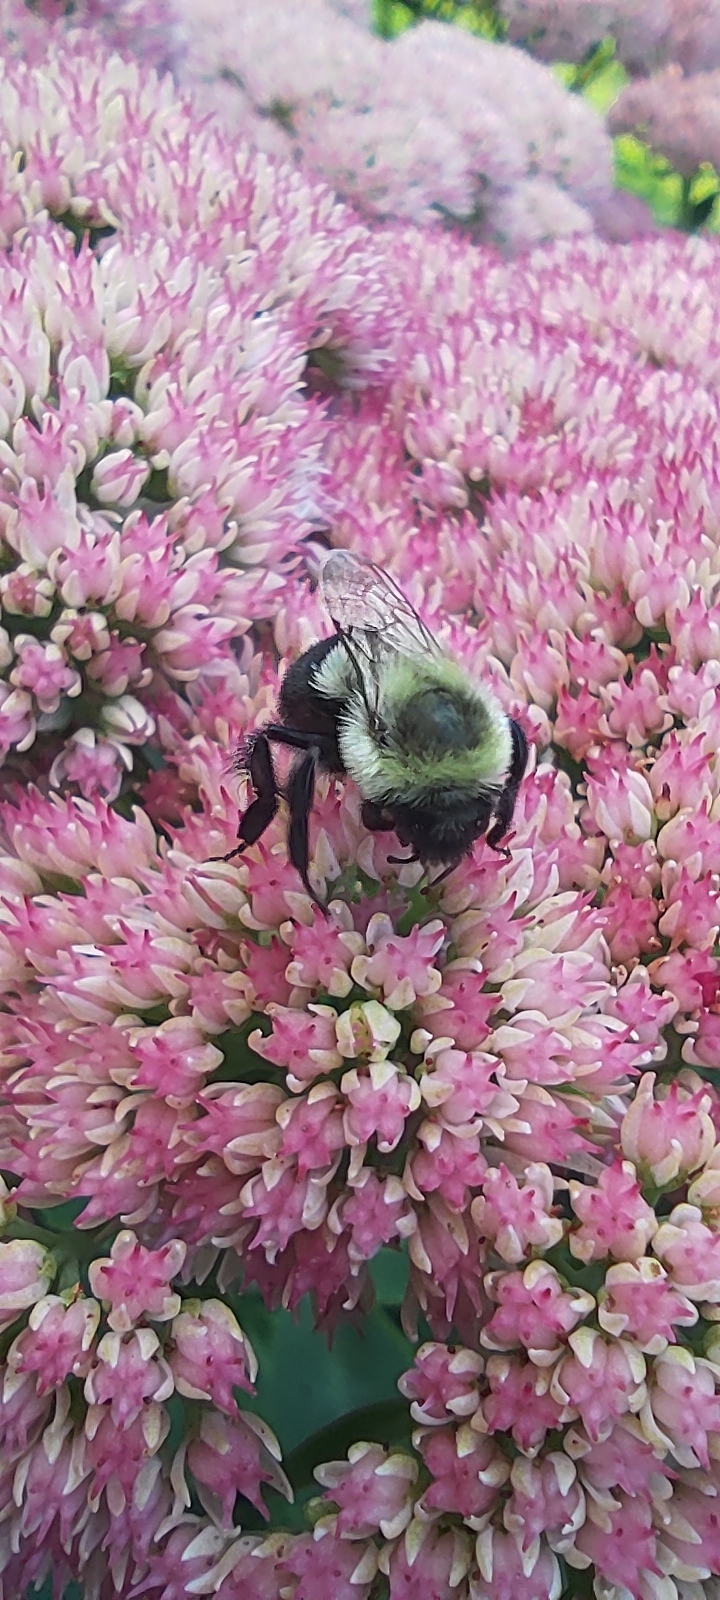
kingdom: Animalia
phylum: Arthropoda
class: Insecta
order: Hymenoptera
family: Apidae
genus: Bombus
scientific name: Bombus impatiens
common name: Common eastern bumble bee
